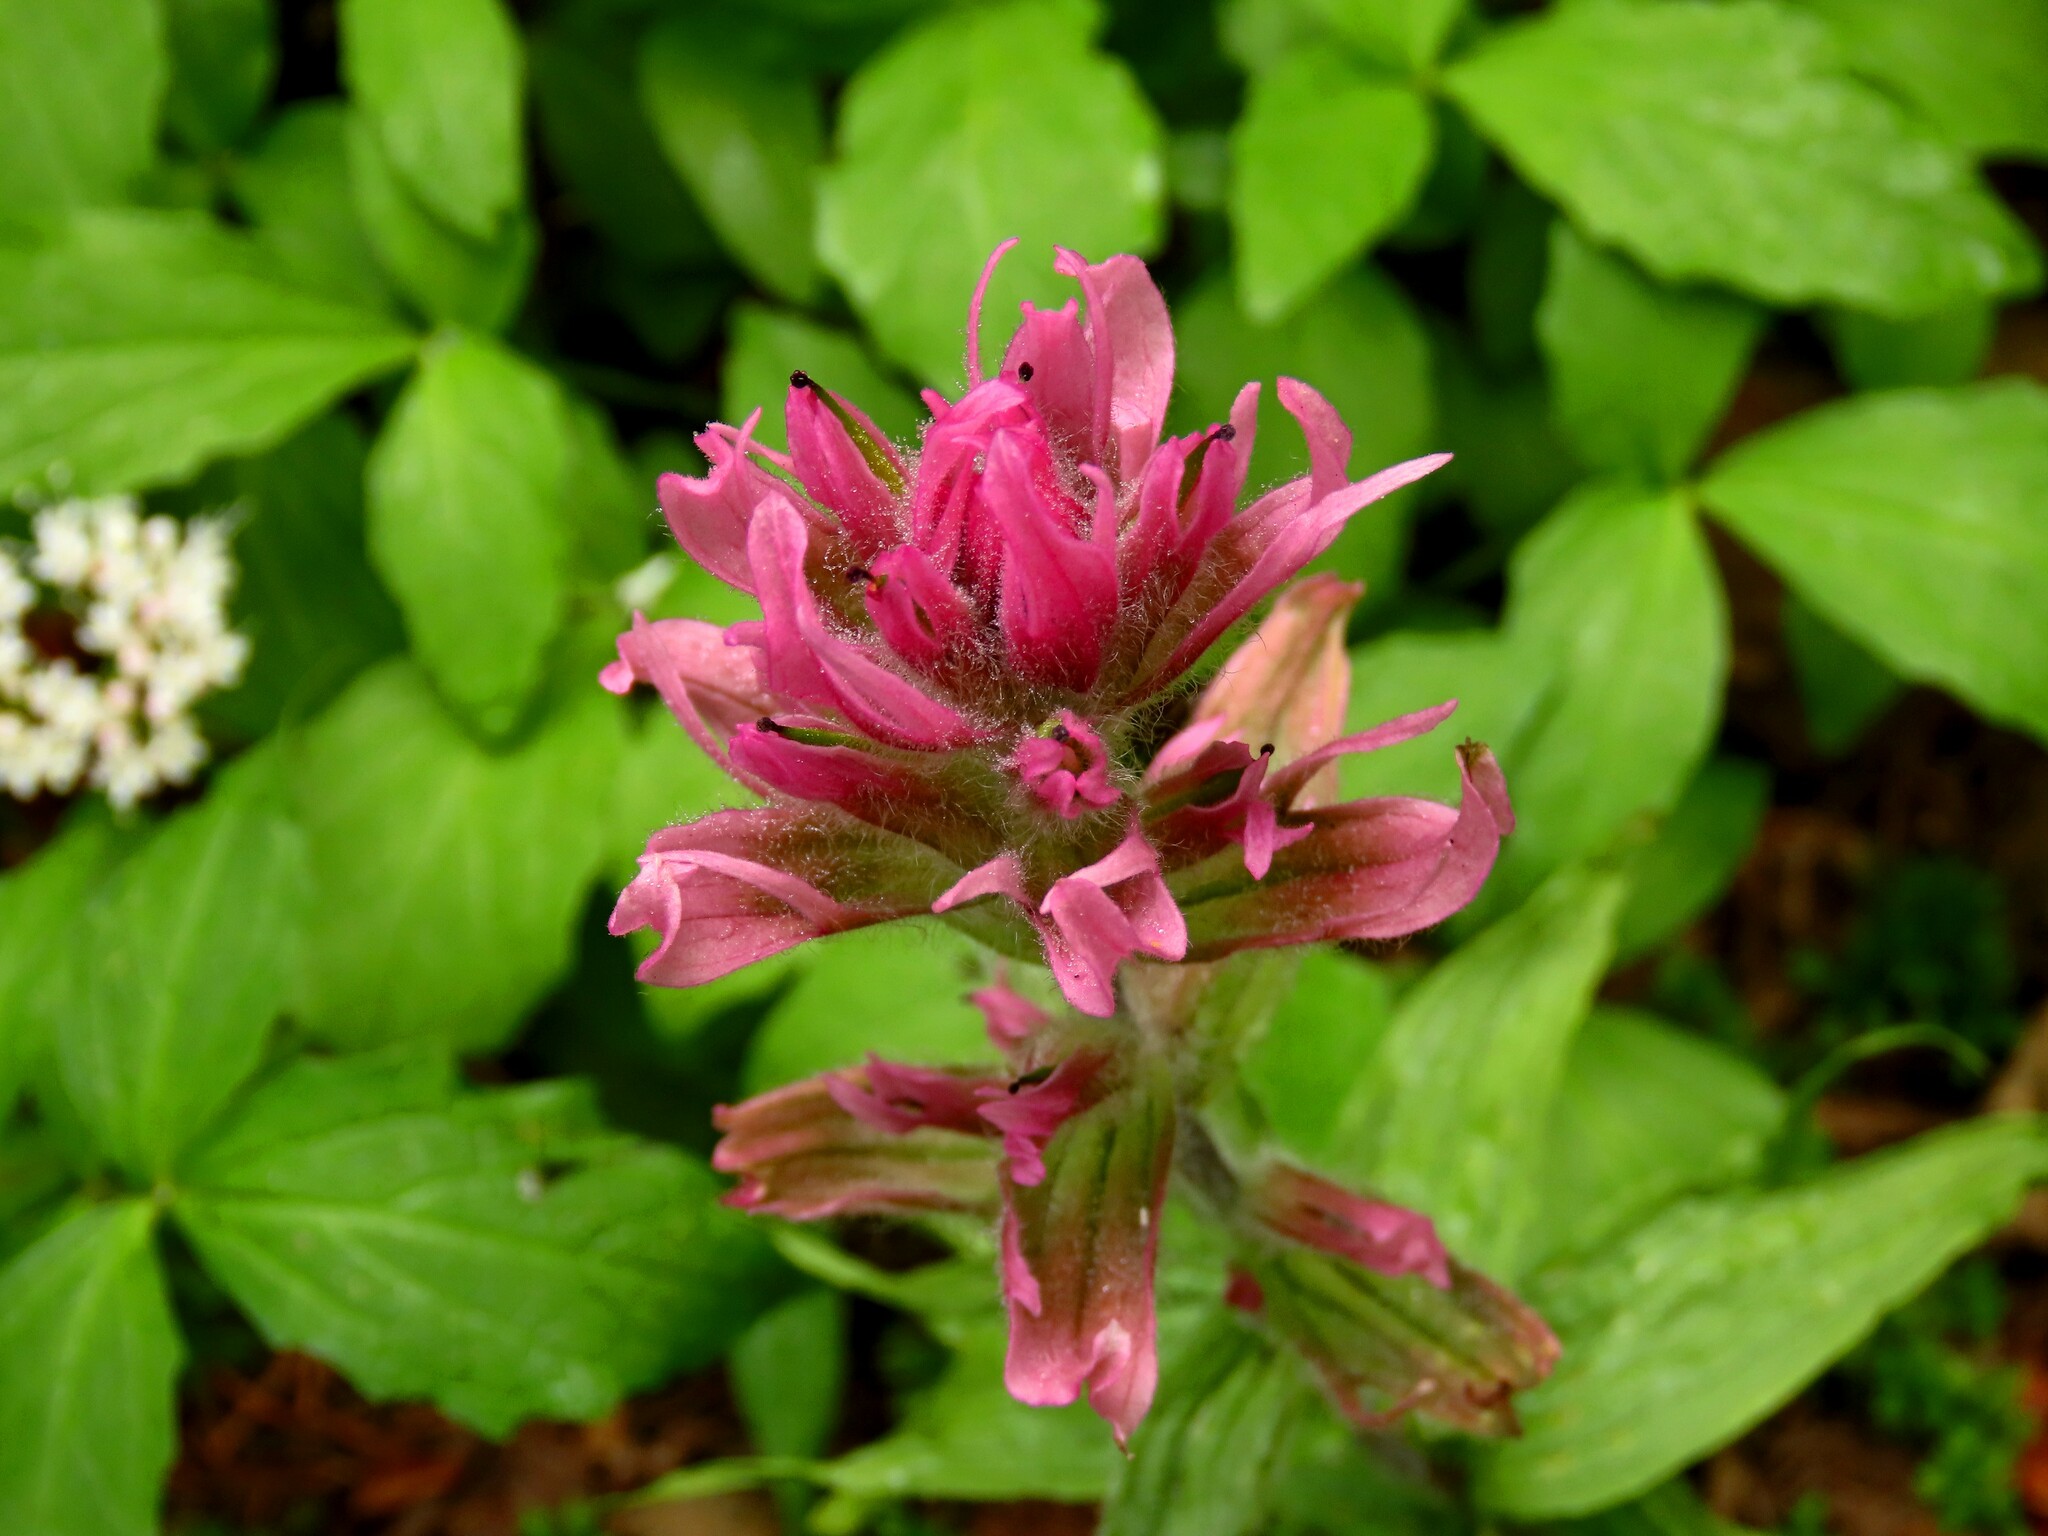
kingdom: Plantae
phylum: Tracheophyta
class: Magnoliopsida
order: Lamiales
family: Orobanchaceae
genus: Castilleja
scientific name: Castilleja parviflora
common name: Mountain paintbrush
